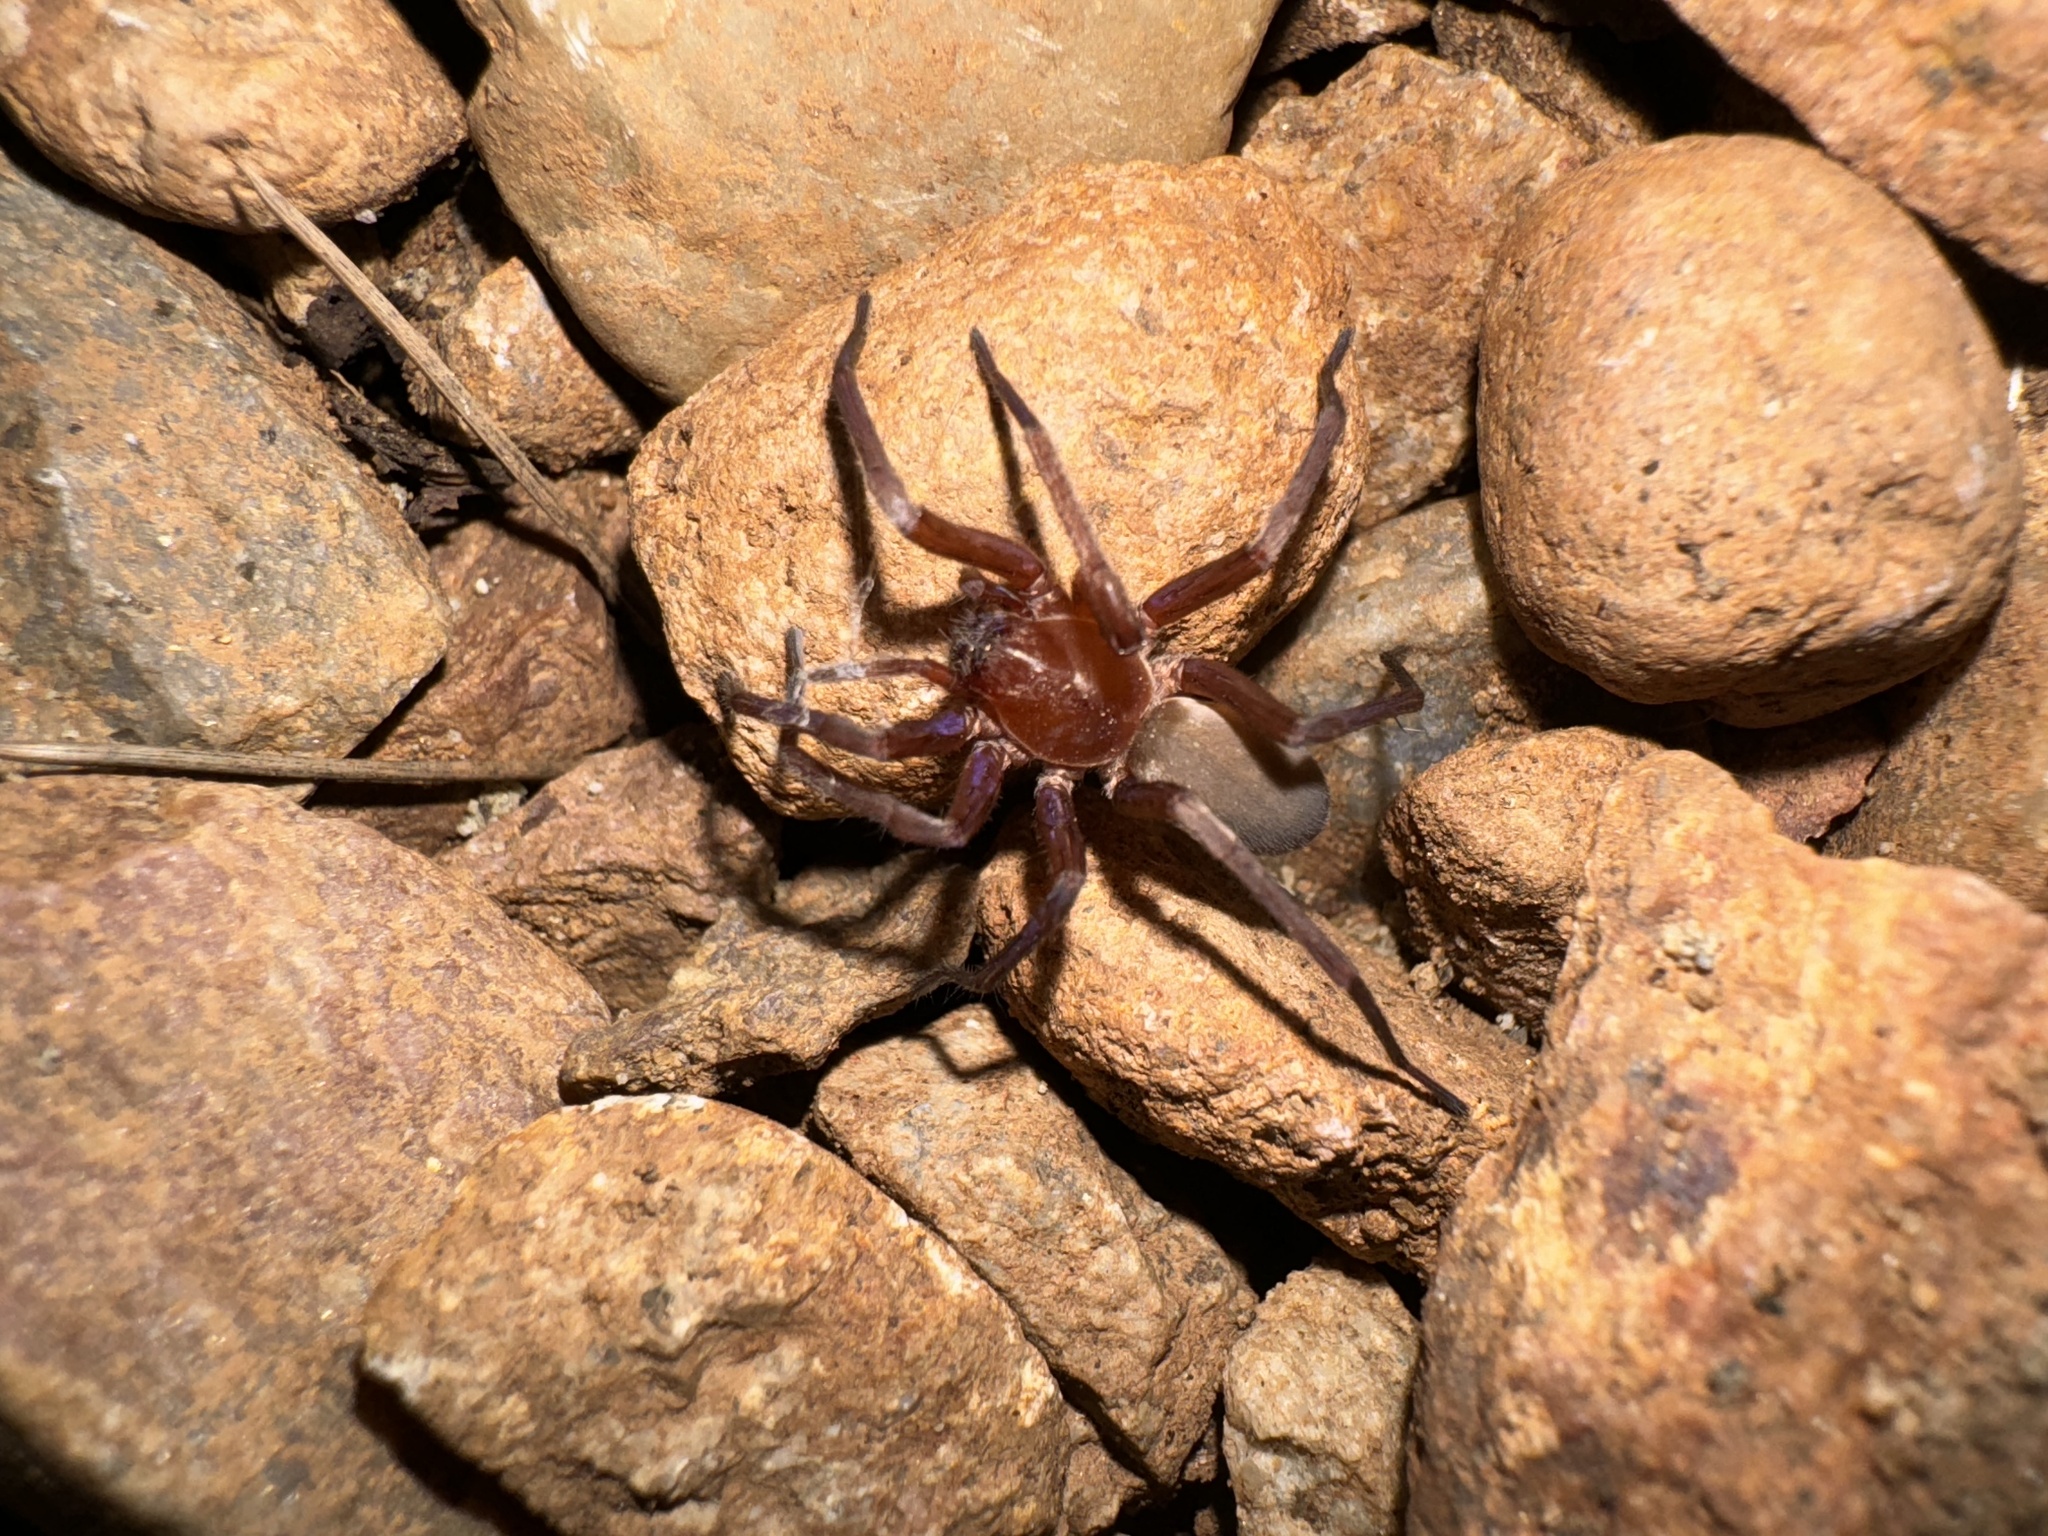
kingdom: Animalia
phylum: Arthropoda
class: Arachnida
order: Araneae
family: Zoropsidae
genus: Titiotus
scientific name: Titiotus
